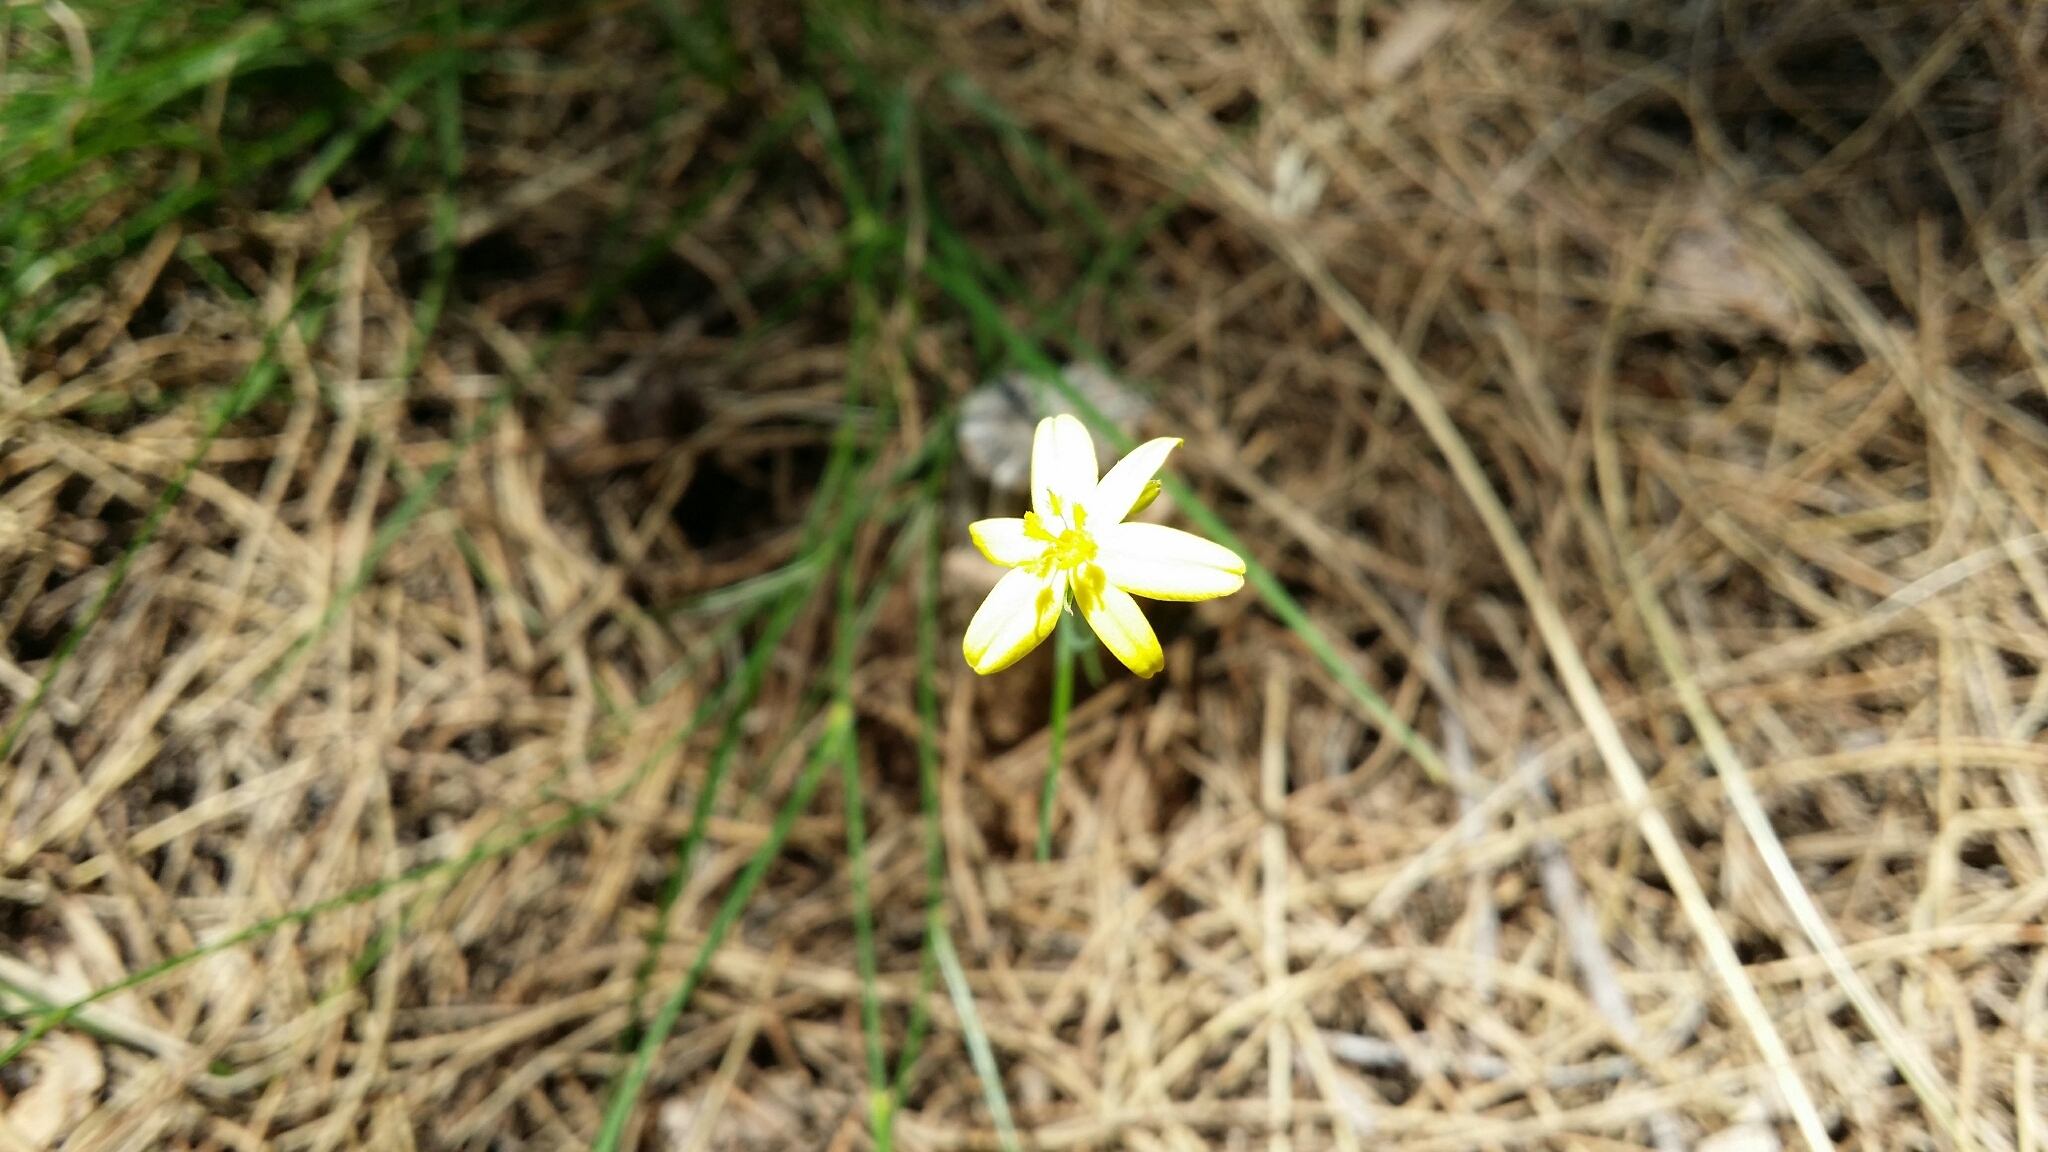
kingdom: Plantae
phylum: Tracheophyta
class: Liliopsida
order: Asparagales
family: Asphodelaceae
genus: Tricoryne
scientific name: Tricoryne elatior
